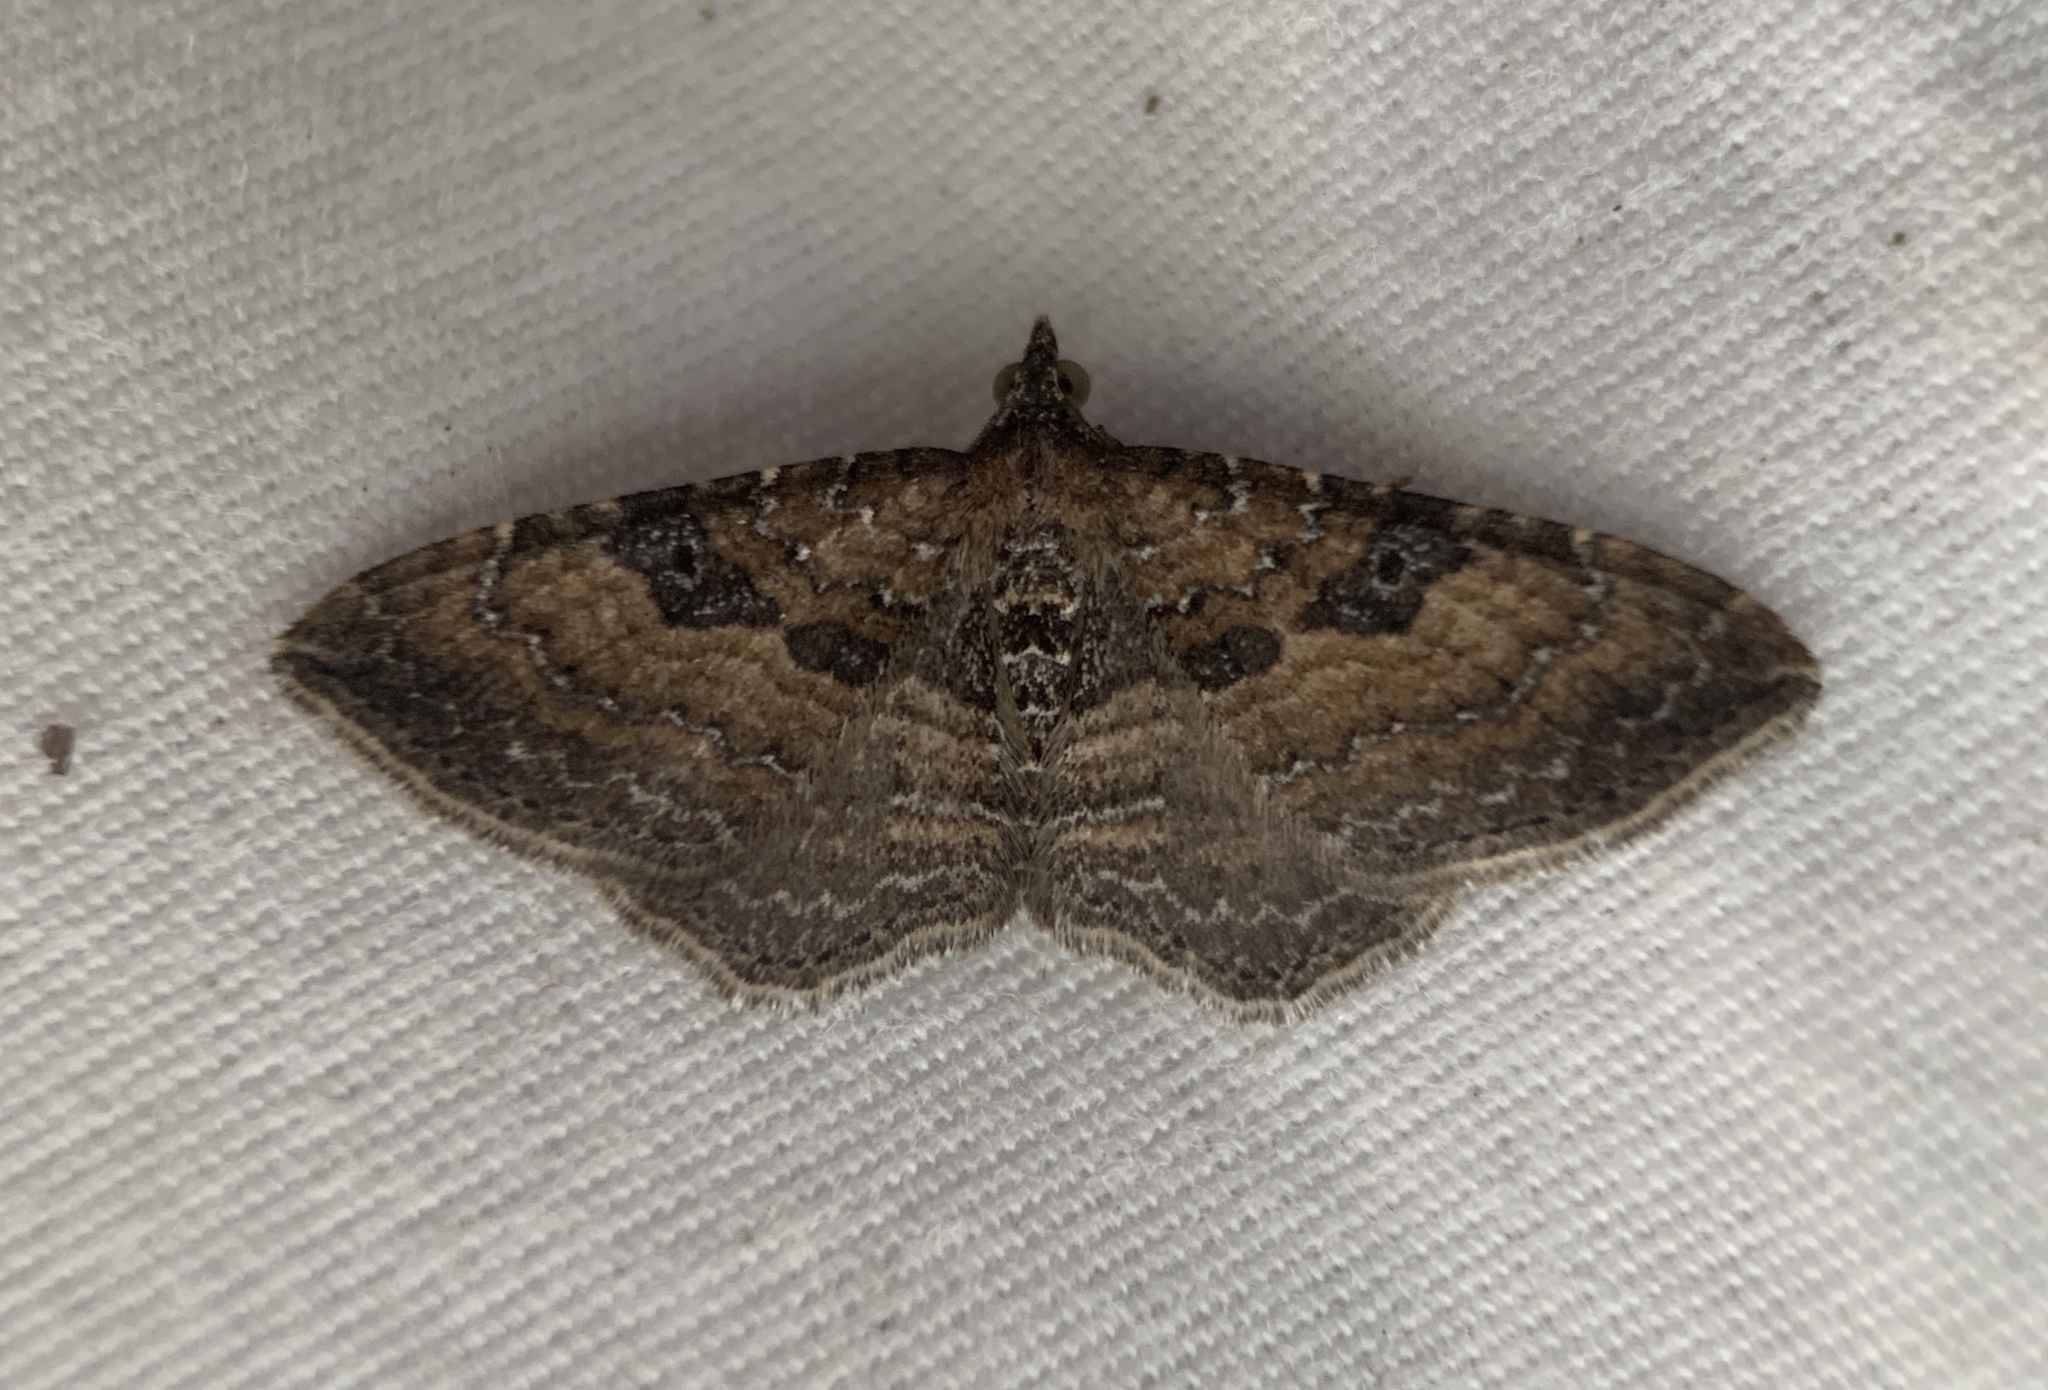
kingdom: Animalia
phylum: Arthropoda
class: Insecta
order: Lepidoptera
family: Geometridae
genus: Orthonama
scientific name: Orthonama obstipata
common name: The gem
